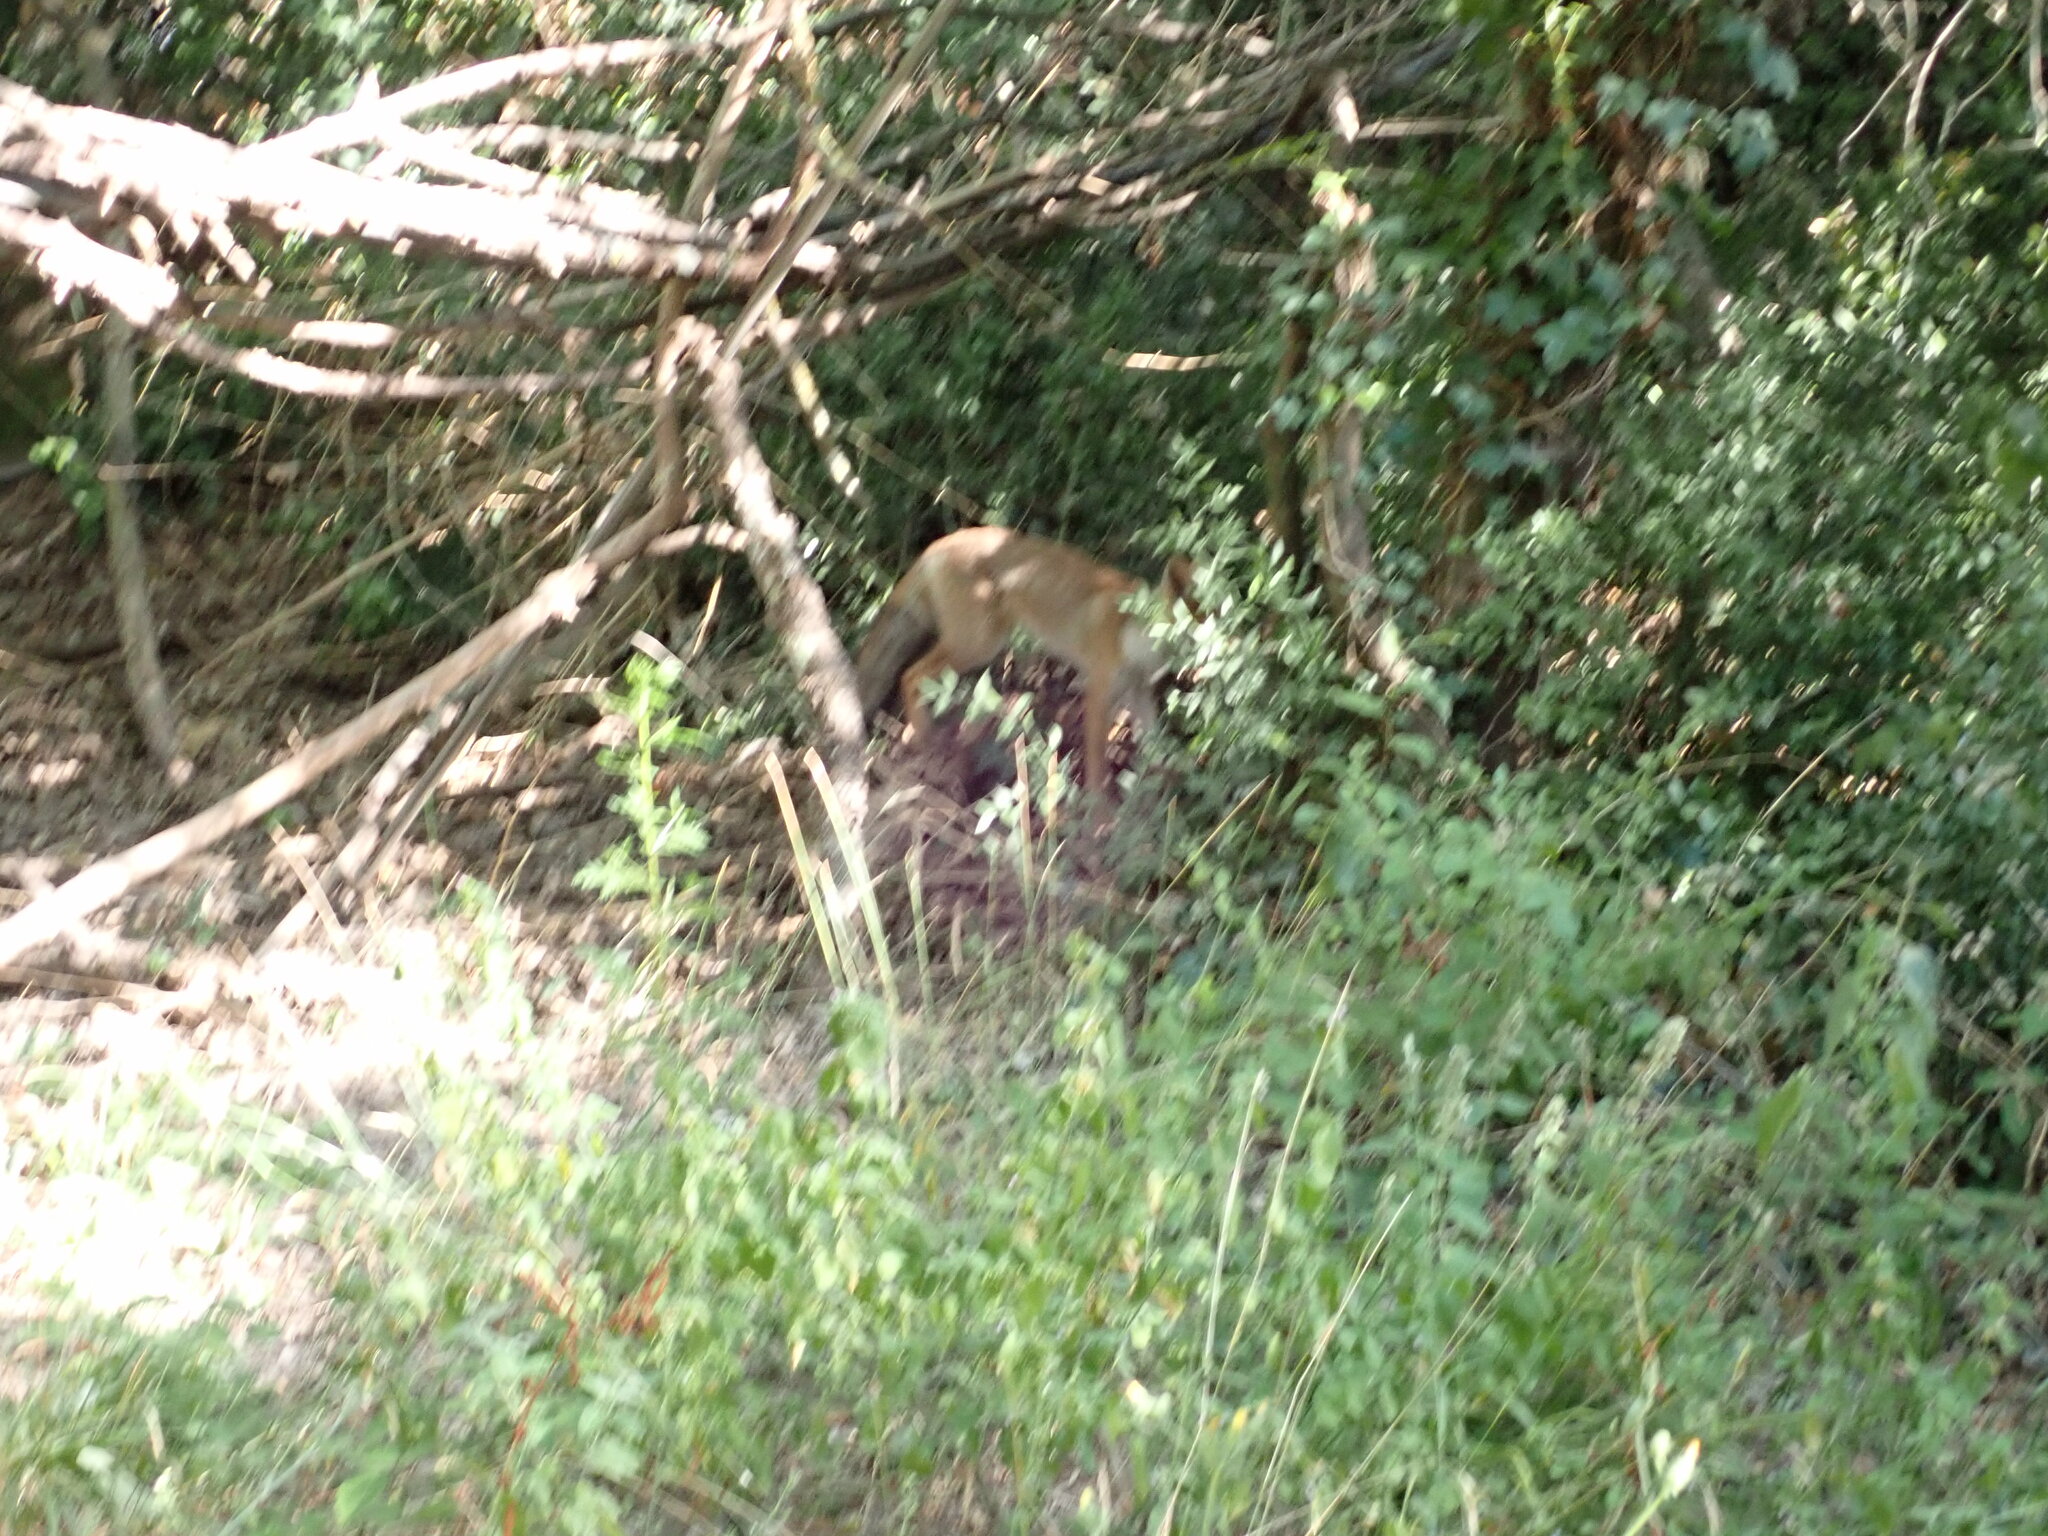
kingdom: Animalia
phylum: Chordata
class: Mammalia
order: Carnivora
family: Canidae
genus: Vulpes
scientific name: Vulpes vulpes
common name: Red fox
